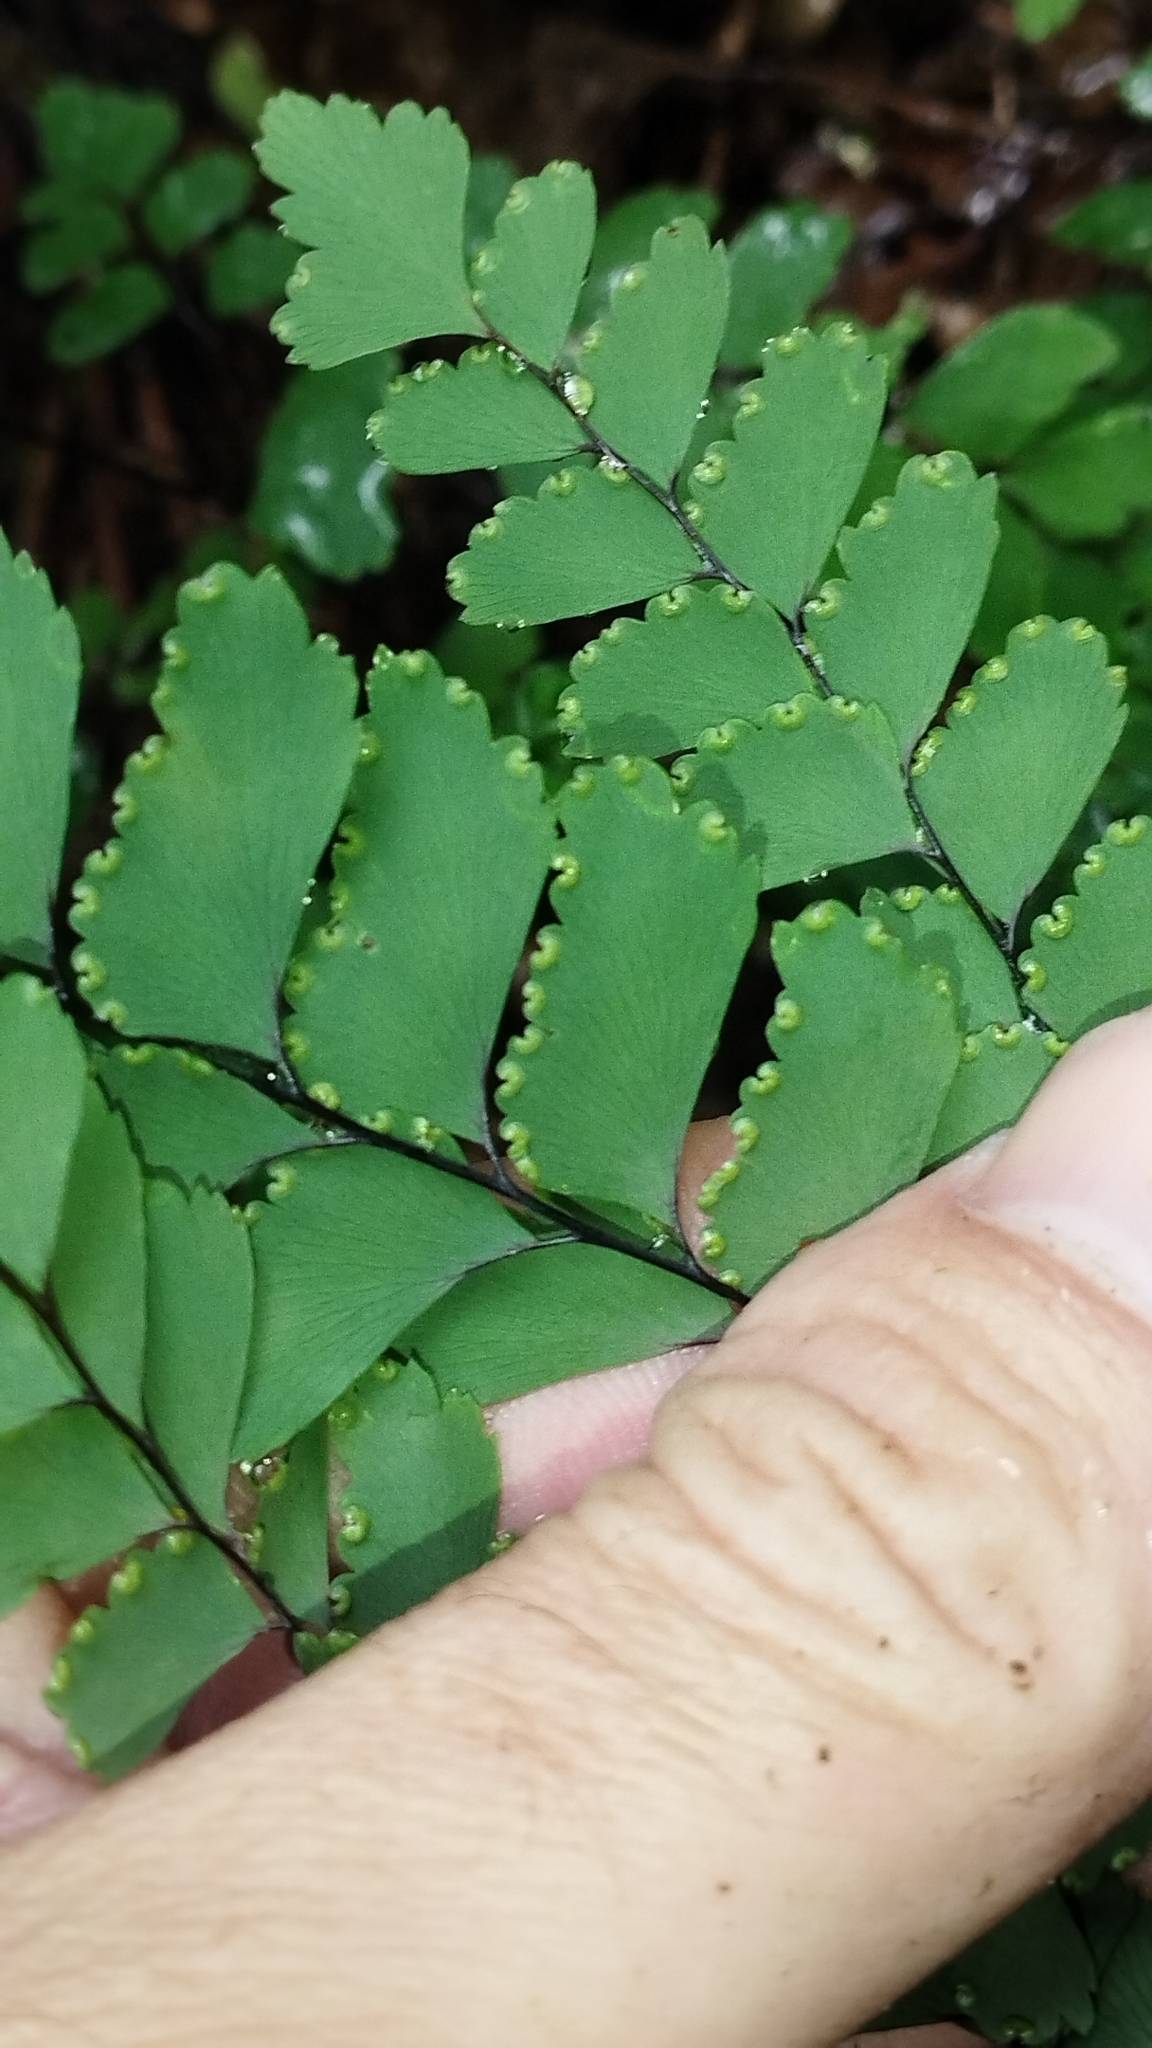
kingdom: Plantae
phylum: Tracheophyta
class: Polypodiopsida
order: Polypodiales
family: Pteridaceae
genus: Adiantum
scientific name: Adiantum cunninghamii
